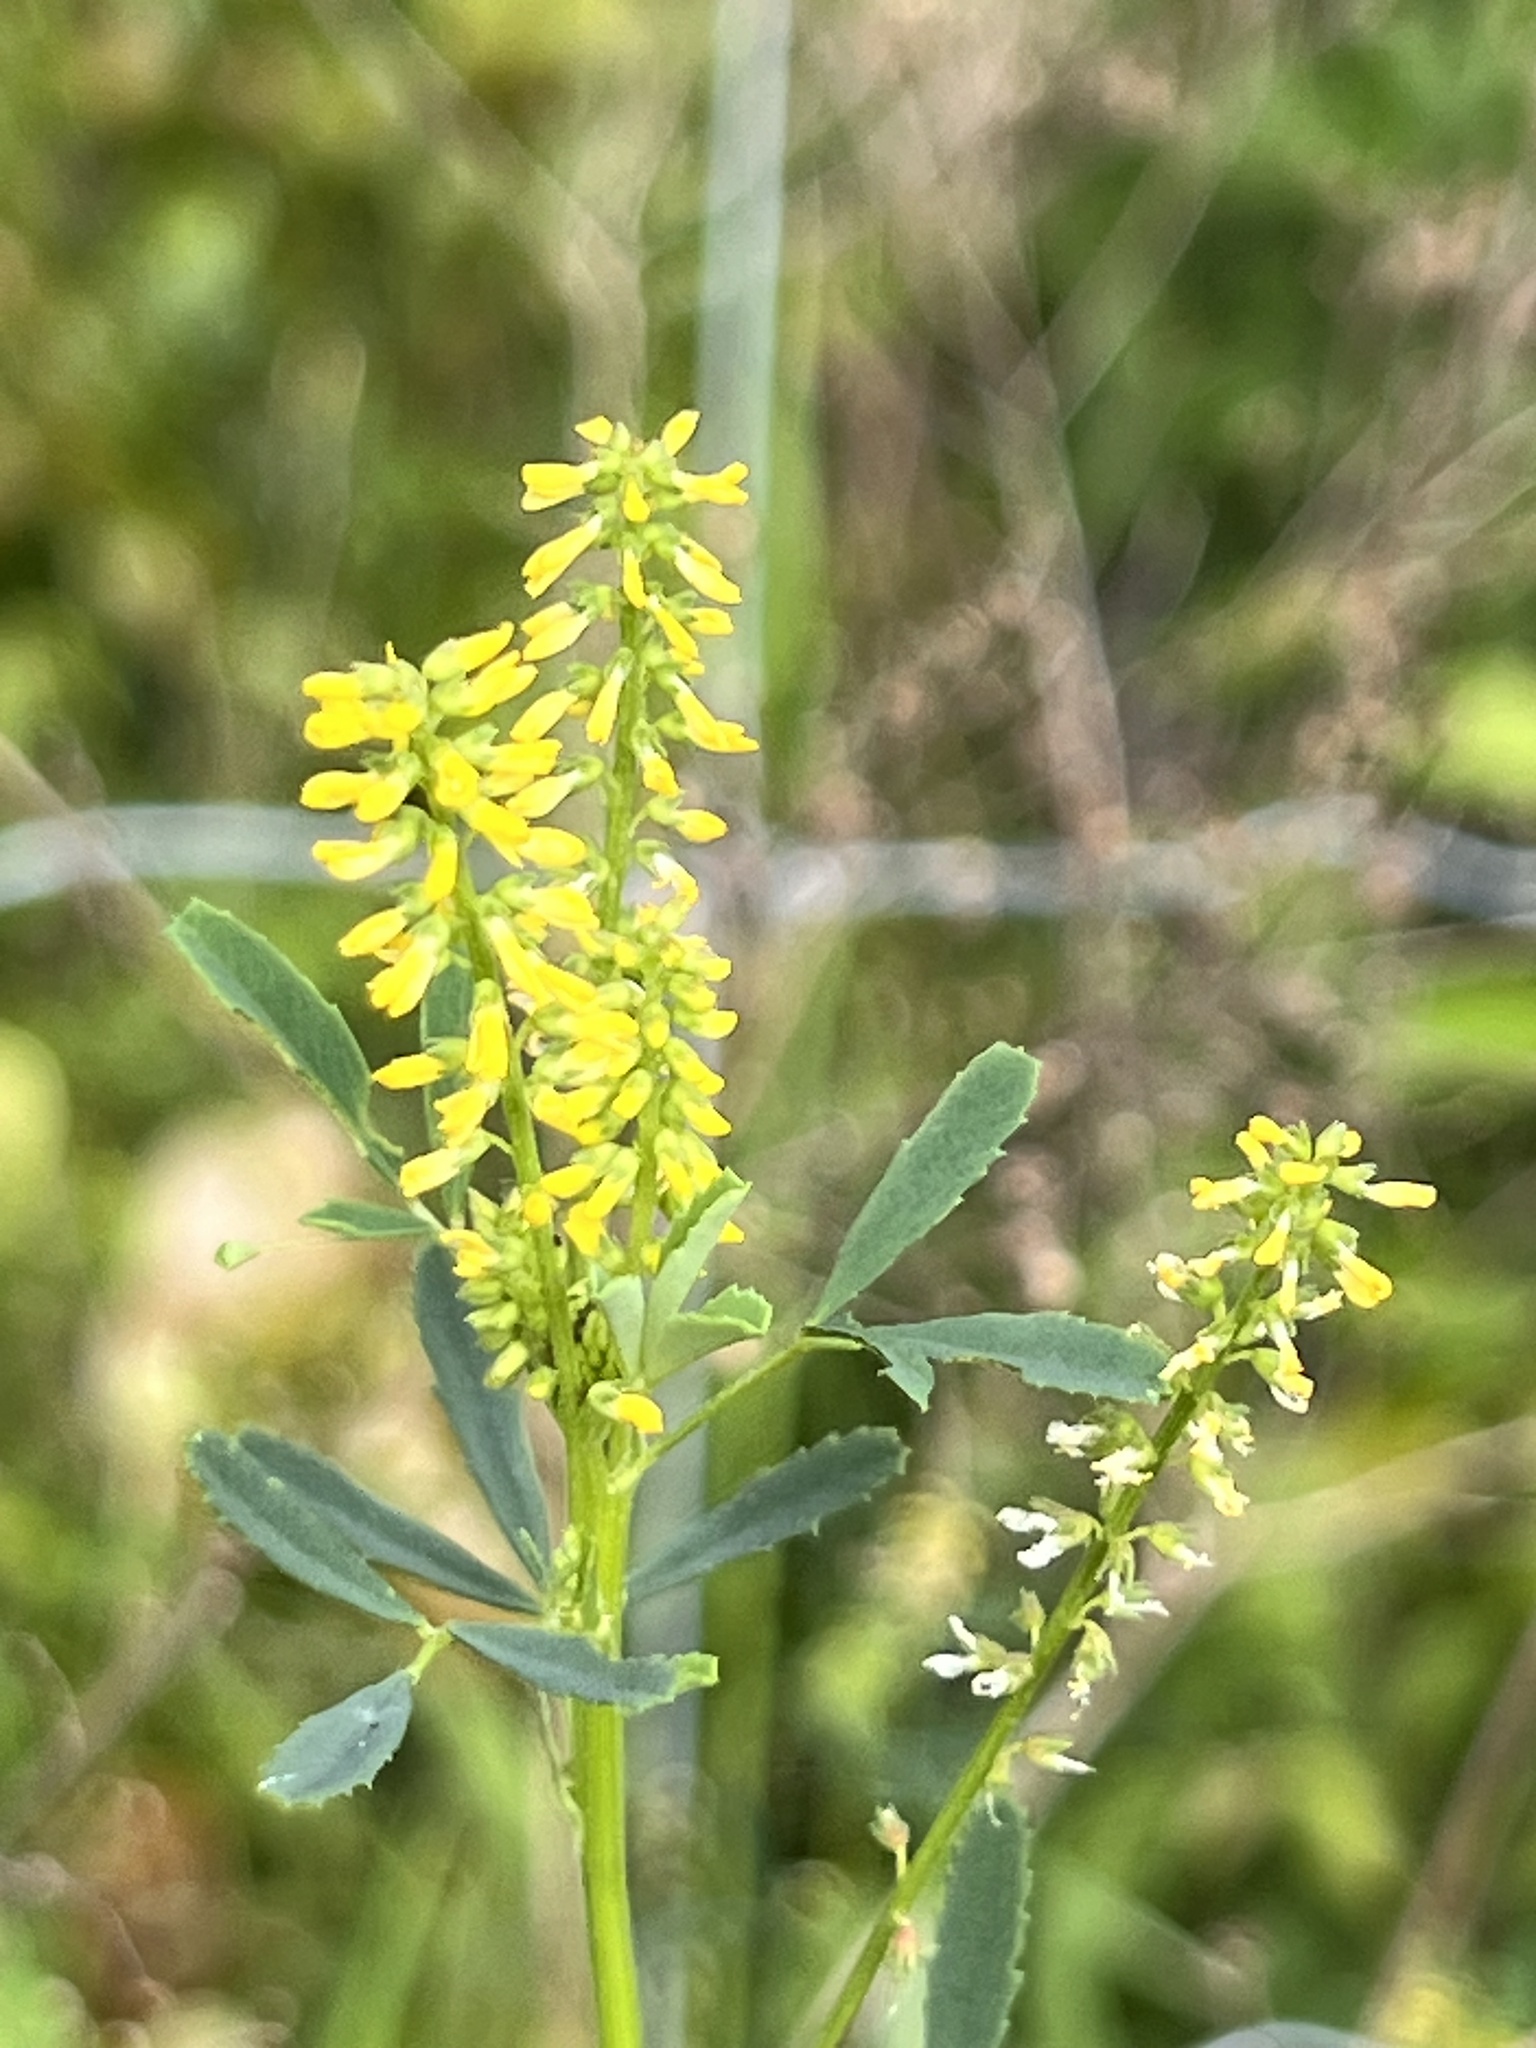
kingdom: Plantae
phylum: Tracheophyta
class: Magnoliopsida
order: Fabales
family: Fabaceae
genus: Melilotus
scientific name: Melilotus indicus
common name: Small melilot
